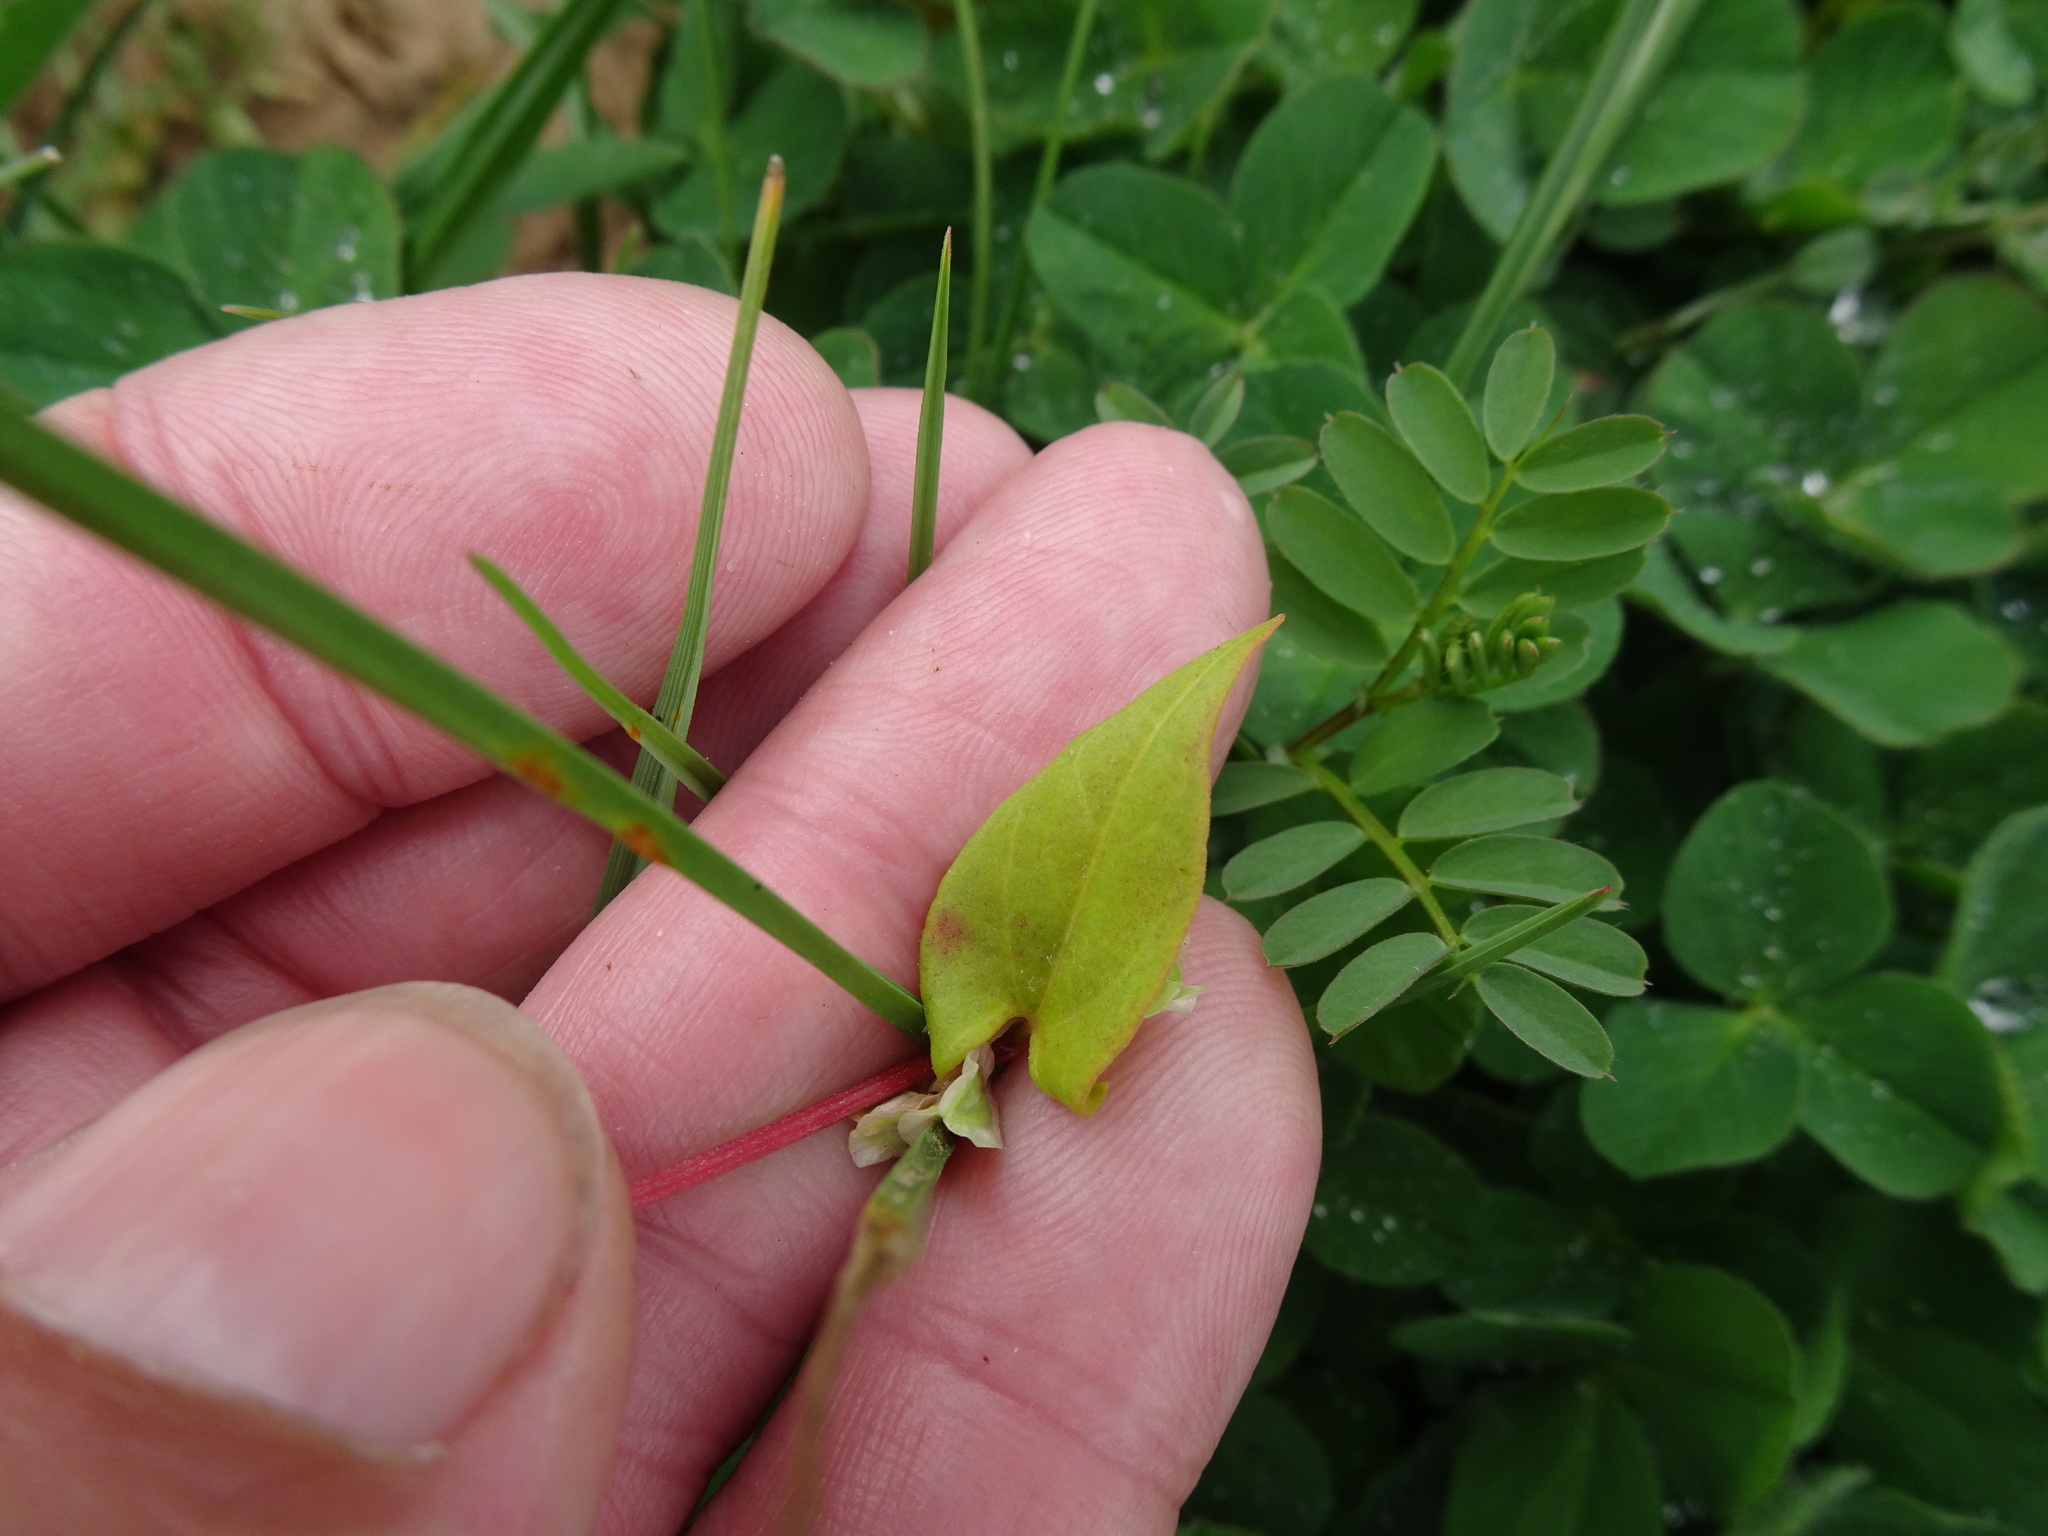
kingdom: Plantae
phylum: Tracheophyta
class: Magnoliopsida
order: Caryophyllales
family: Polygonaceae
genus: Fallopia
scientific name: Fallopia dumetorum
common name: Copse-bindweed
